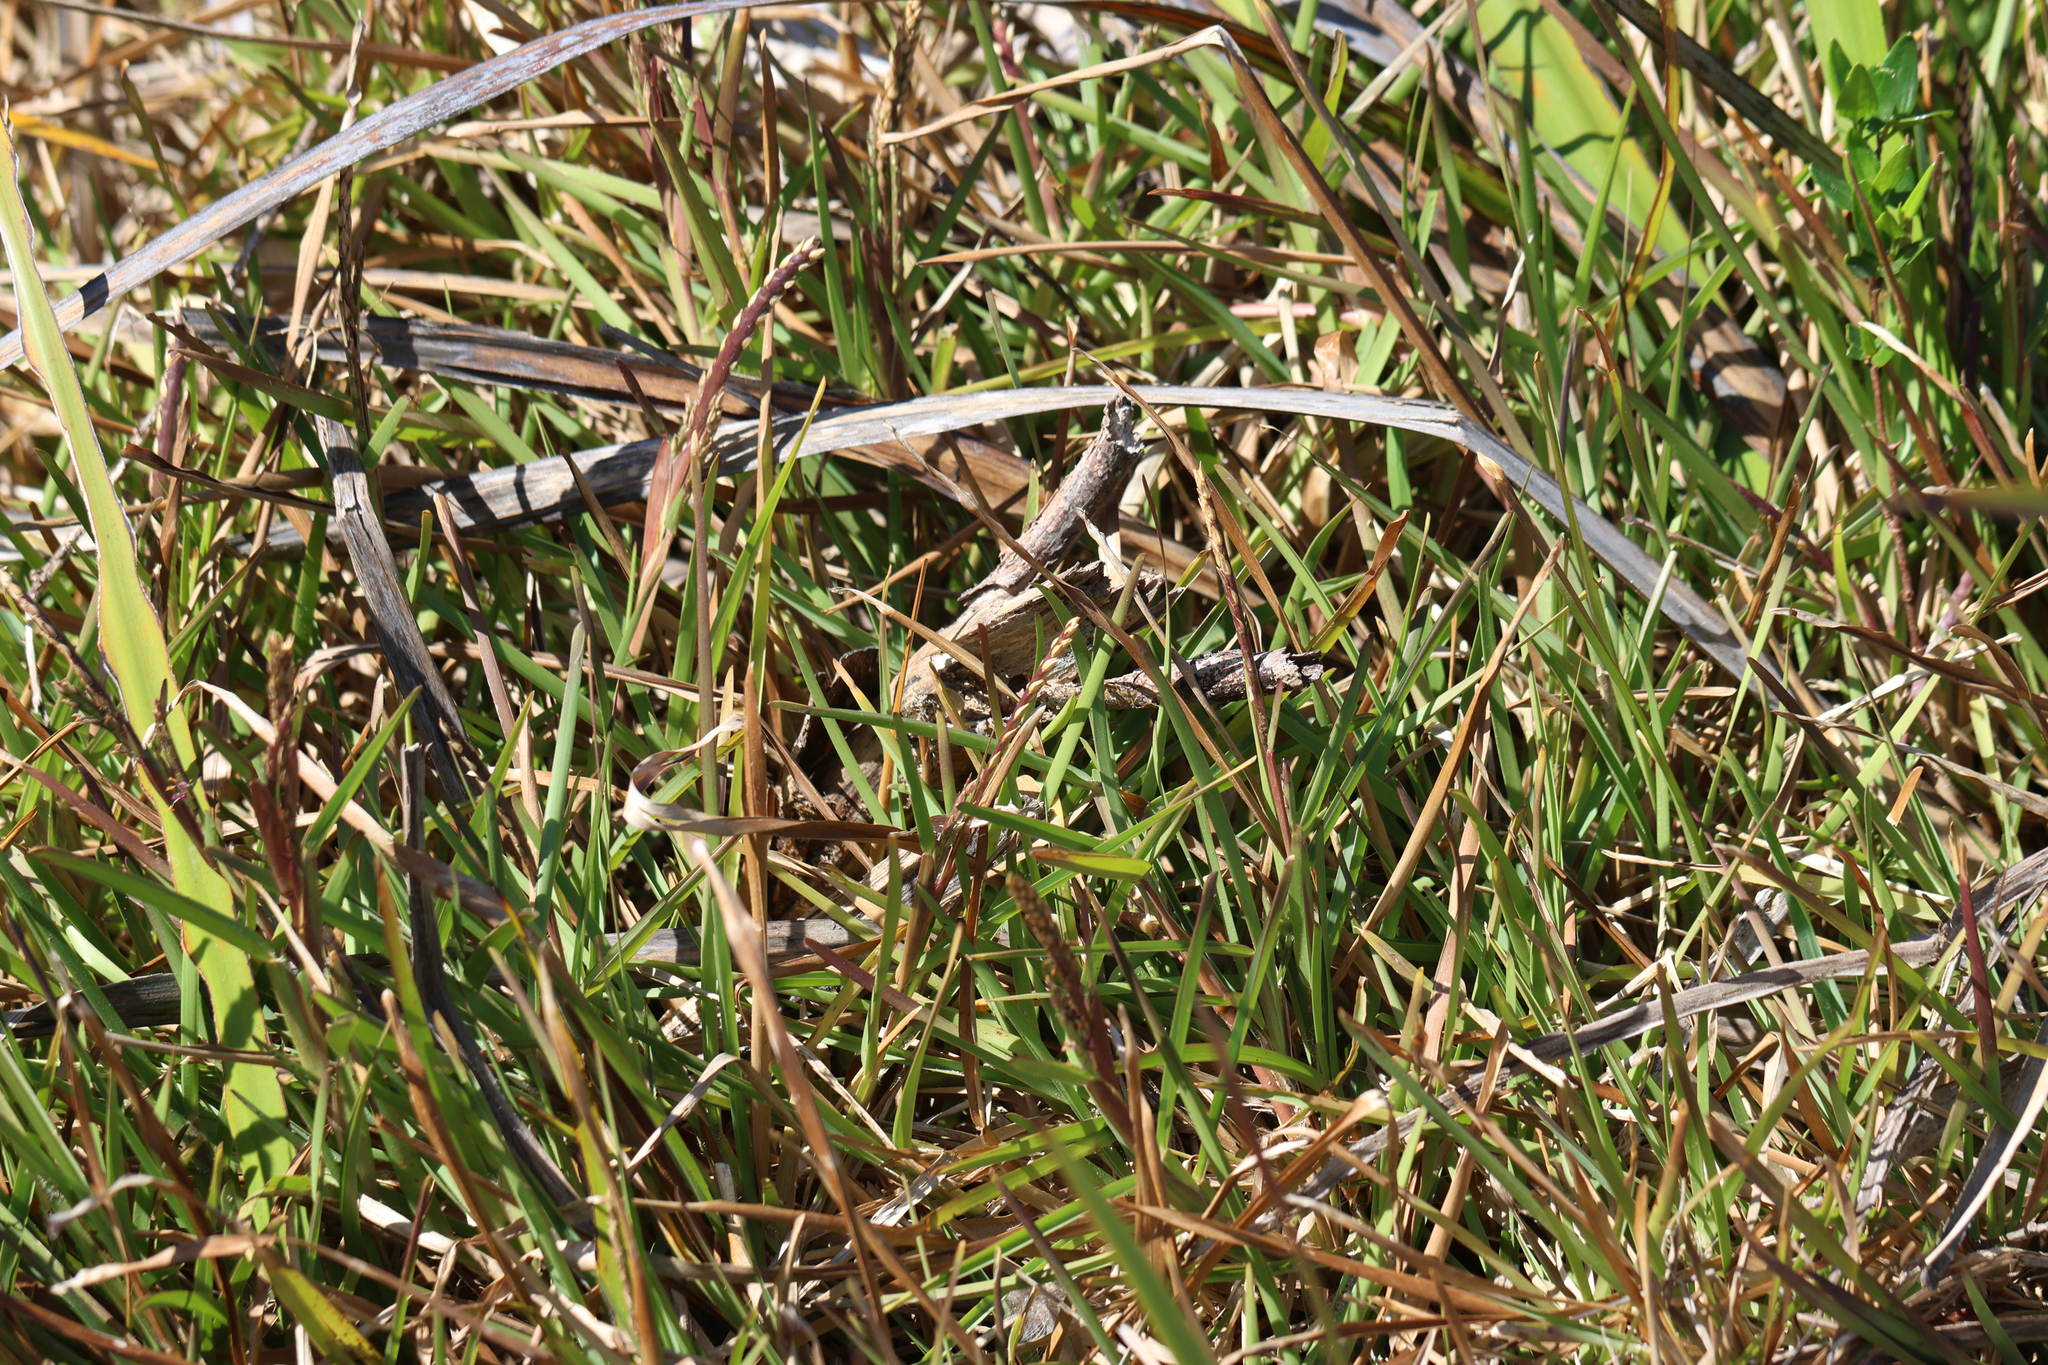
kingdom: Plantae
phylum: Tracheophyta
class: Liliopsida
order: Poales
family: Poaceae
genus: Stenotaphrum
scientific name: Stenotaphrum secundatum
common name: St. augustine grass
